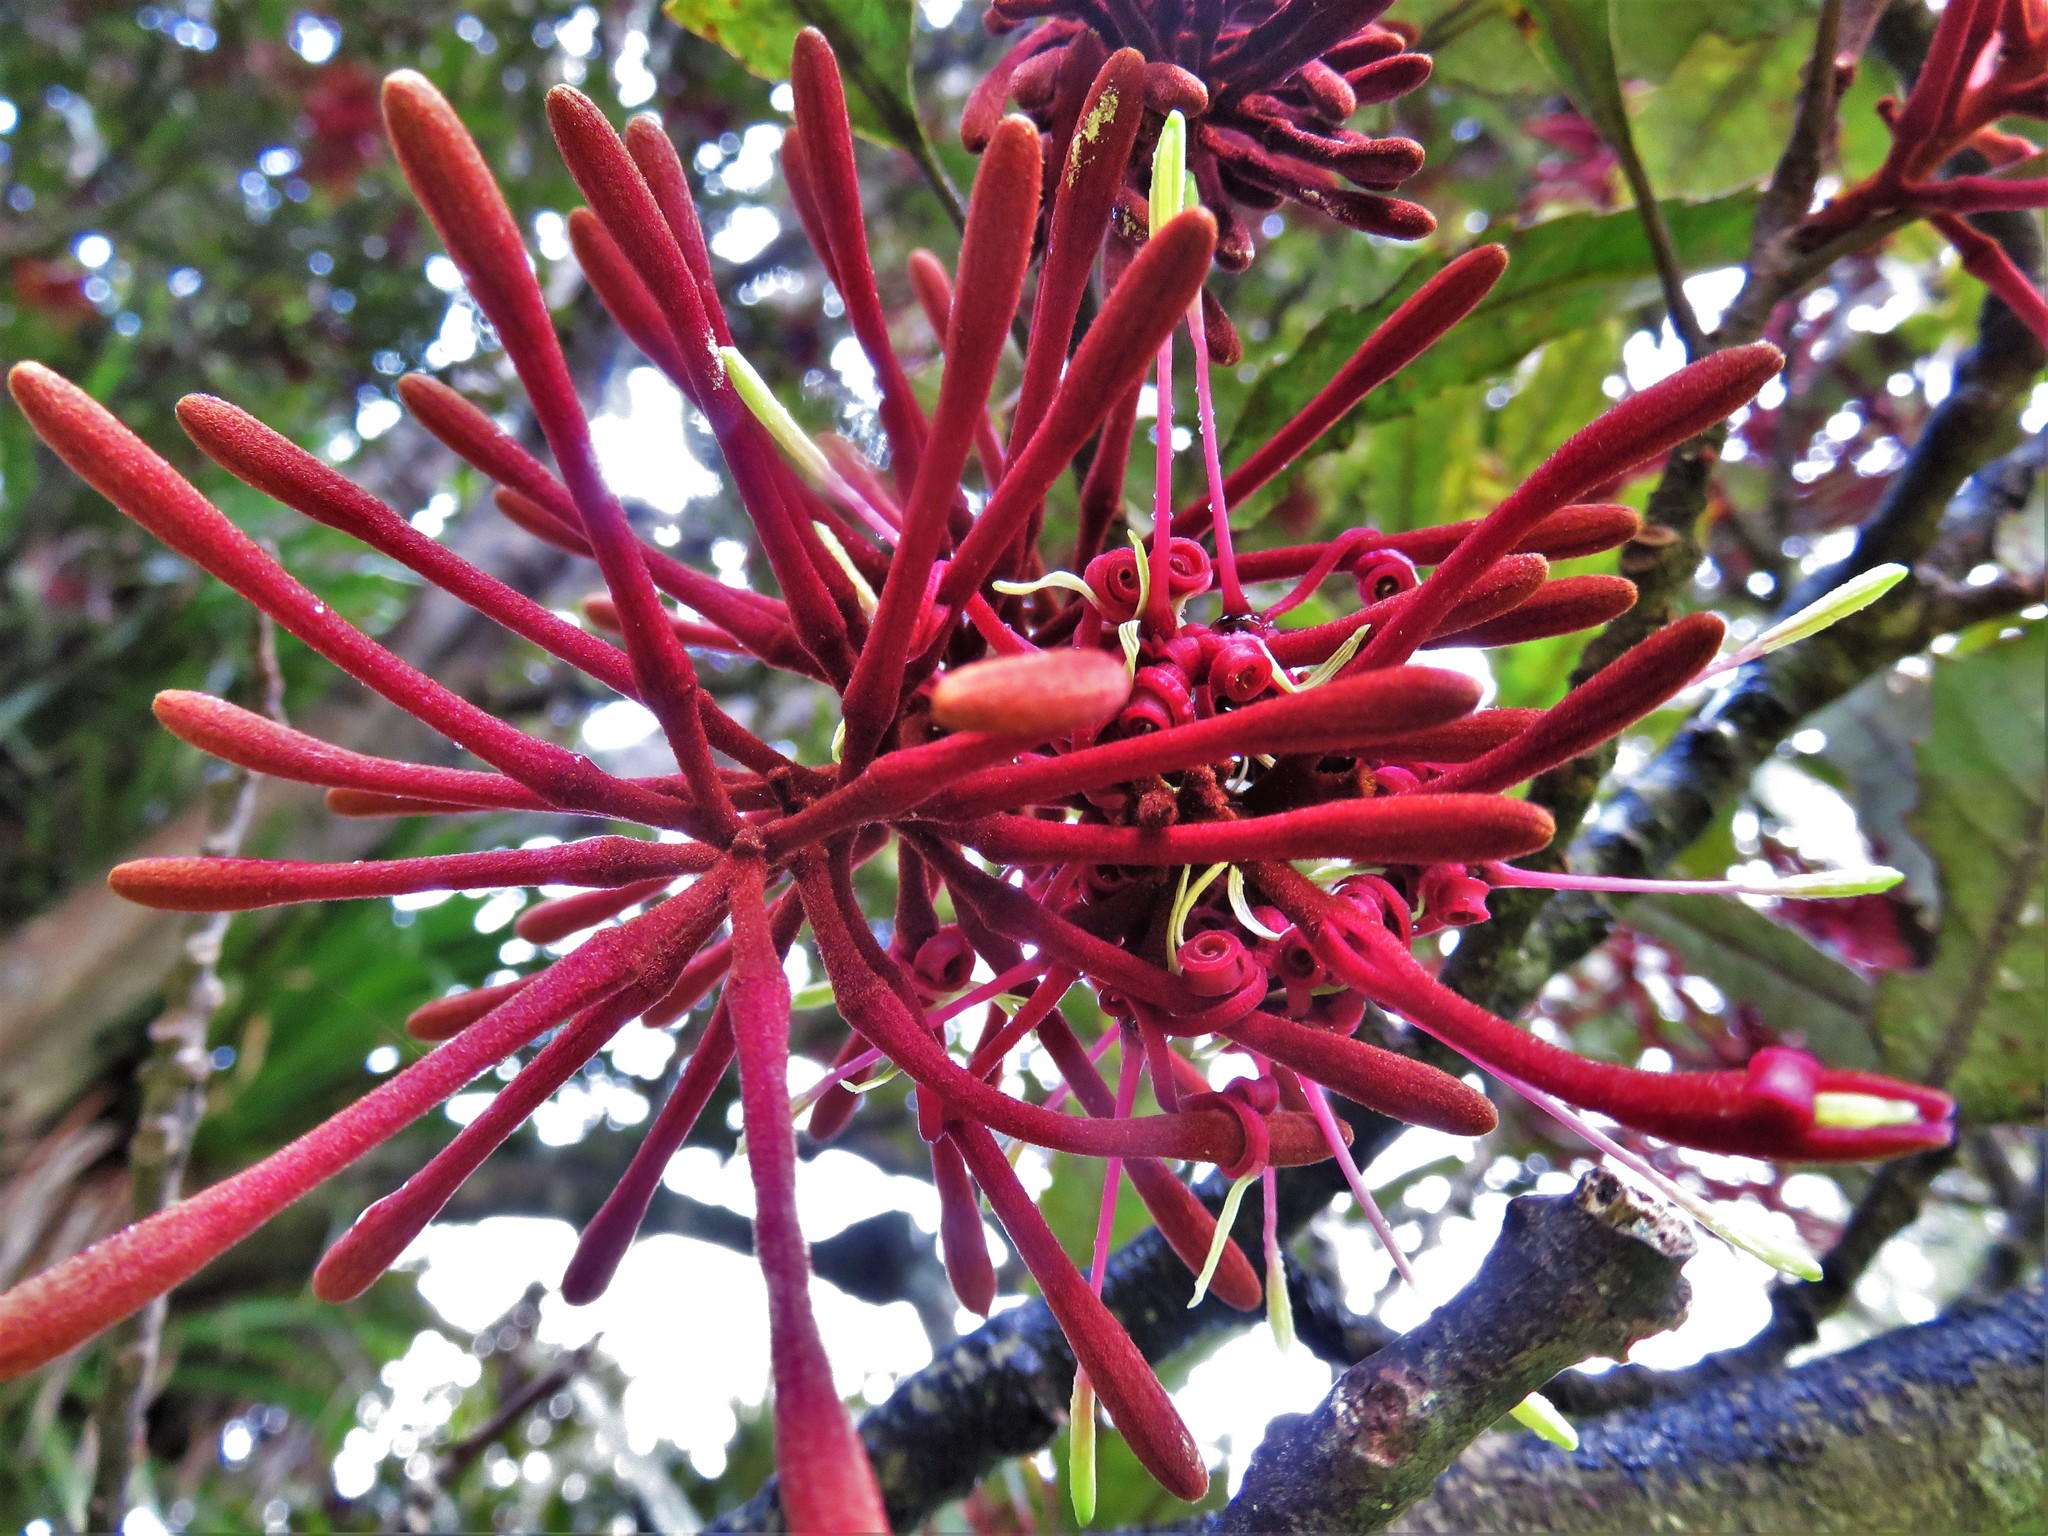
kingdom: Plantae
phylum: Tracheophyta
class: Magnoliopsida
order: Proteales
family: Proteaceae
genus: Knightia
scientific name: Knightia excelsa
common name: New zealand-honeysuckle
